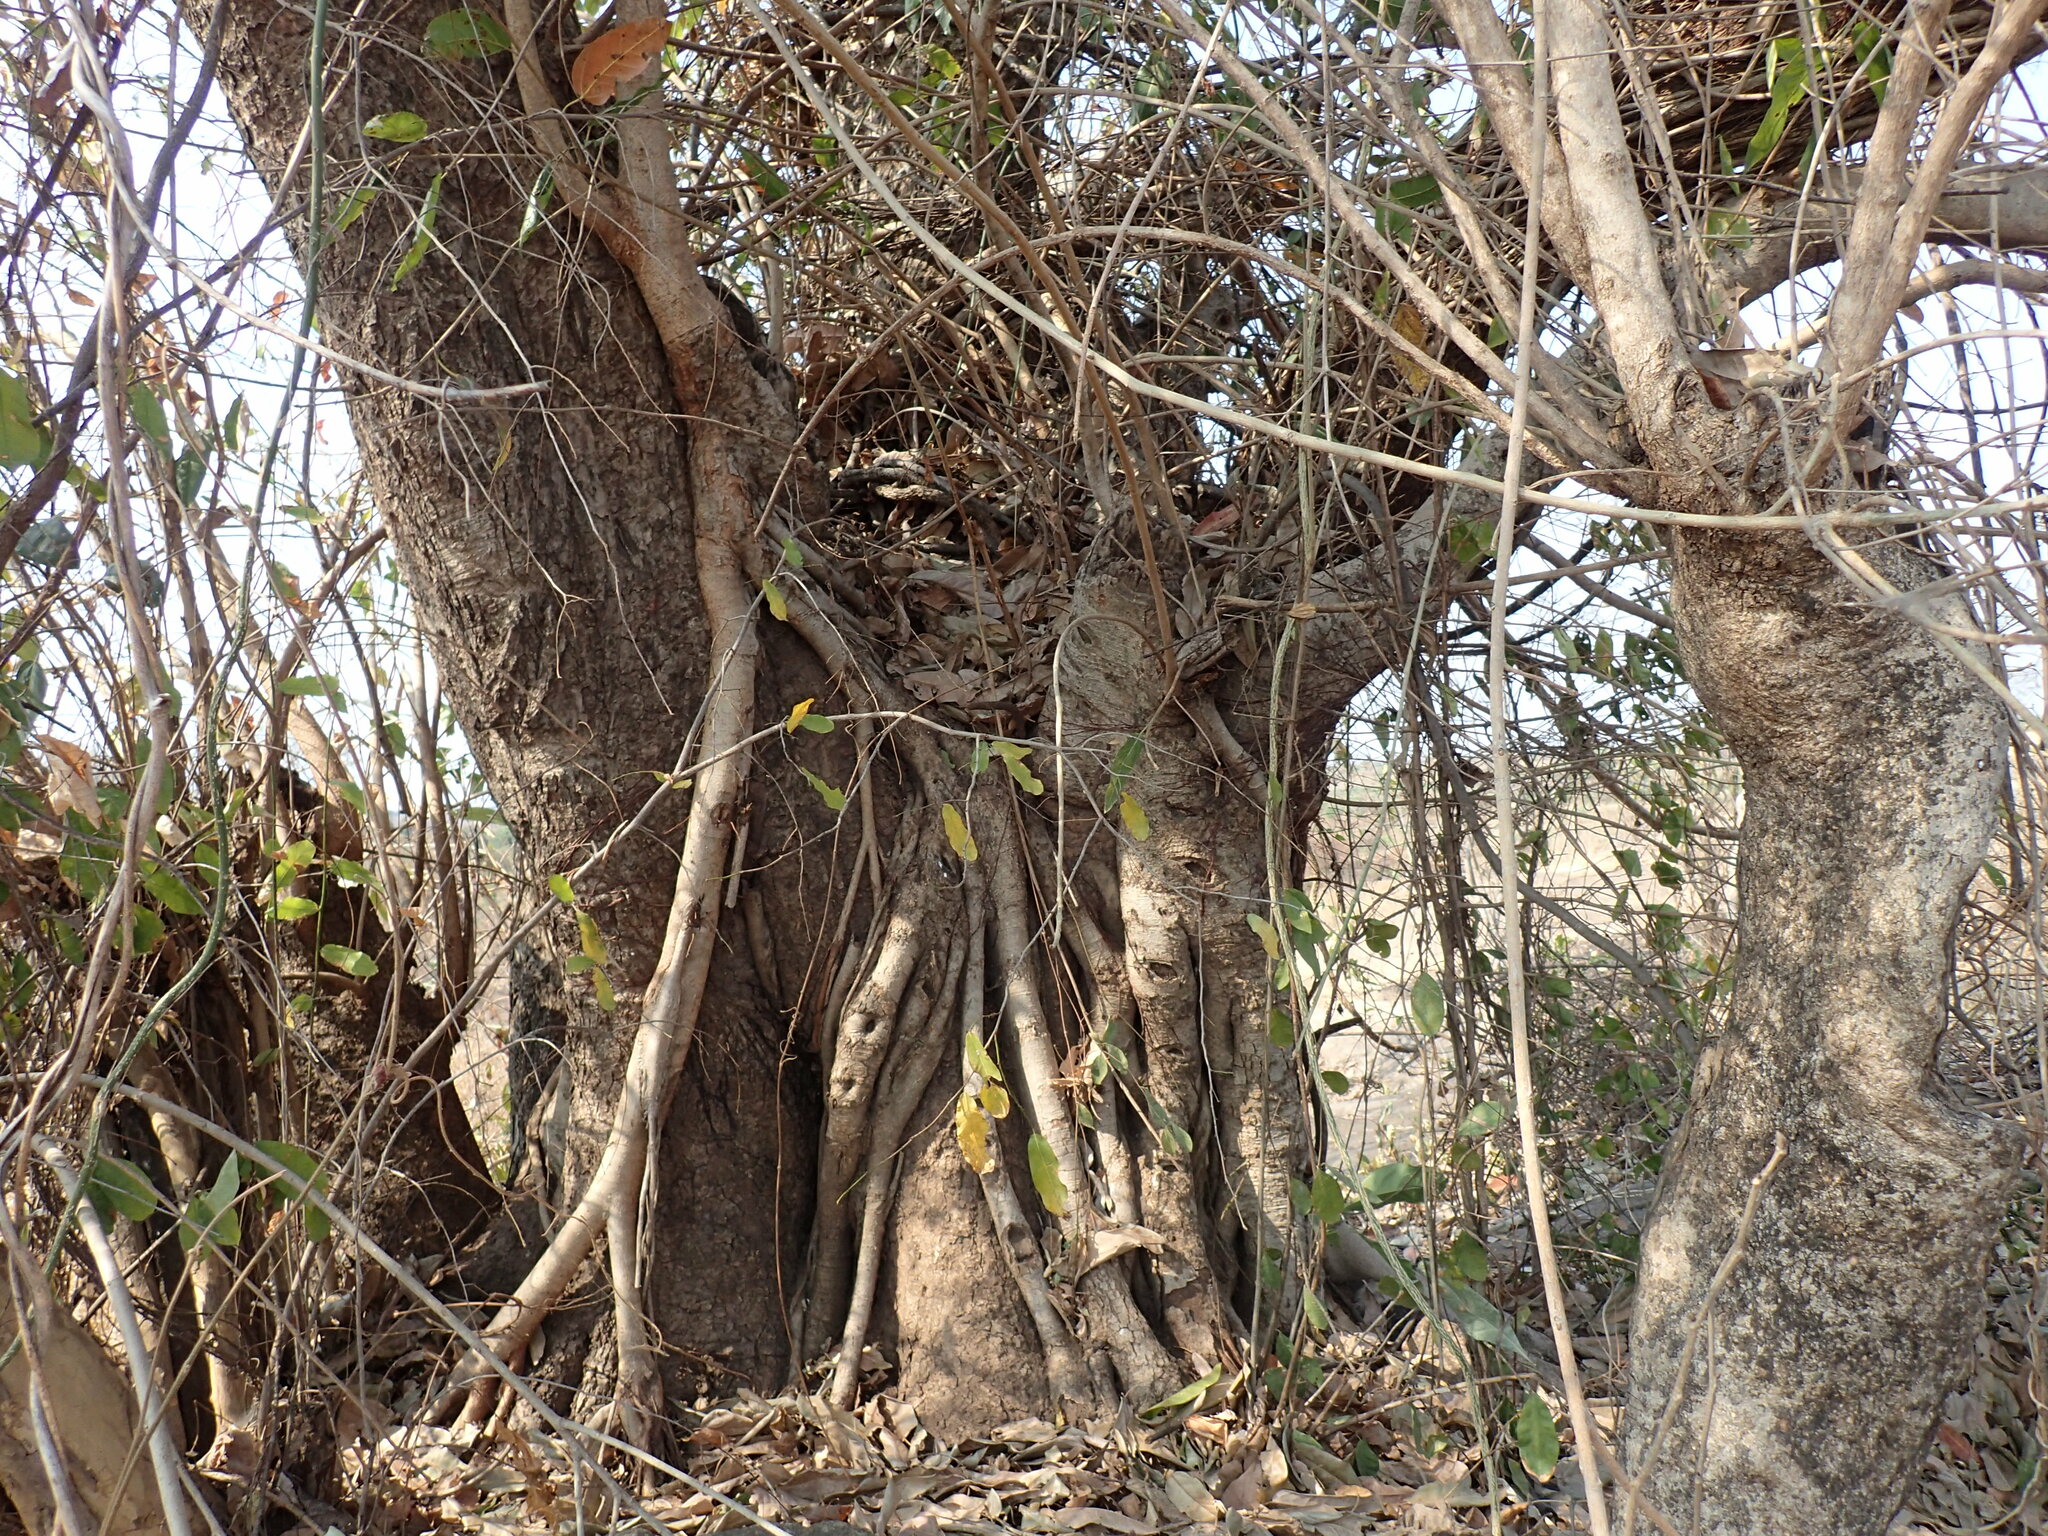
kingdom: Plantae
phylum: Tracheophyta
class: Magnoliopsida
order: Rosales
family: Moraceae
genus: Ficus
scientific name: Ficus ingens
